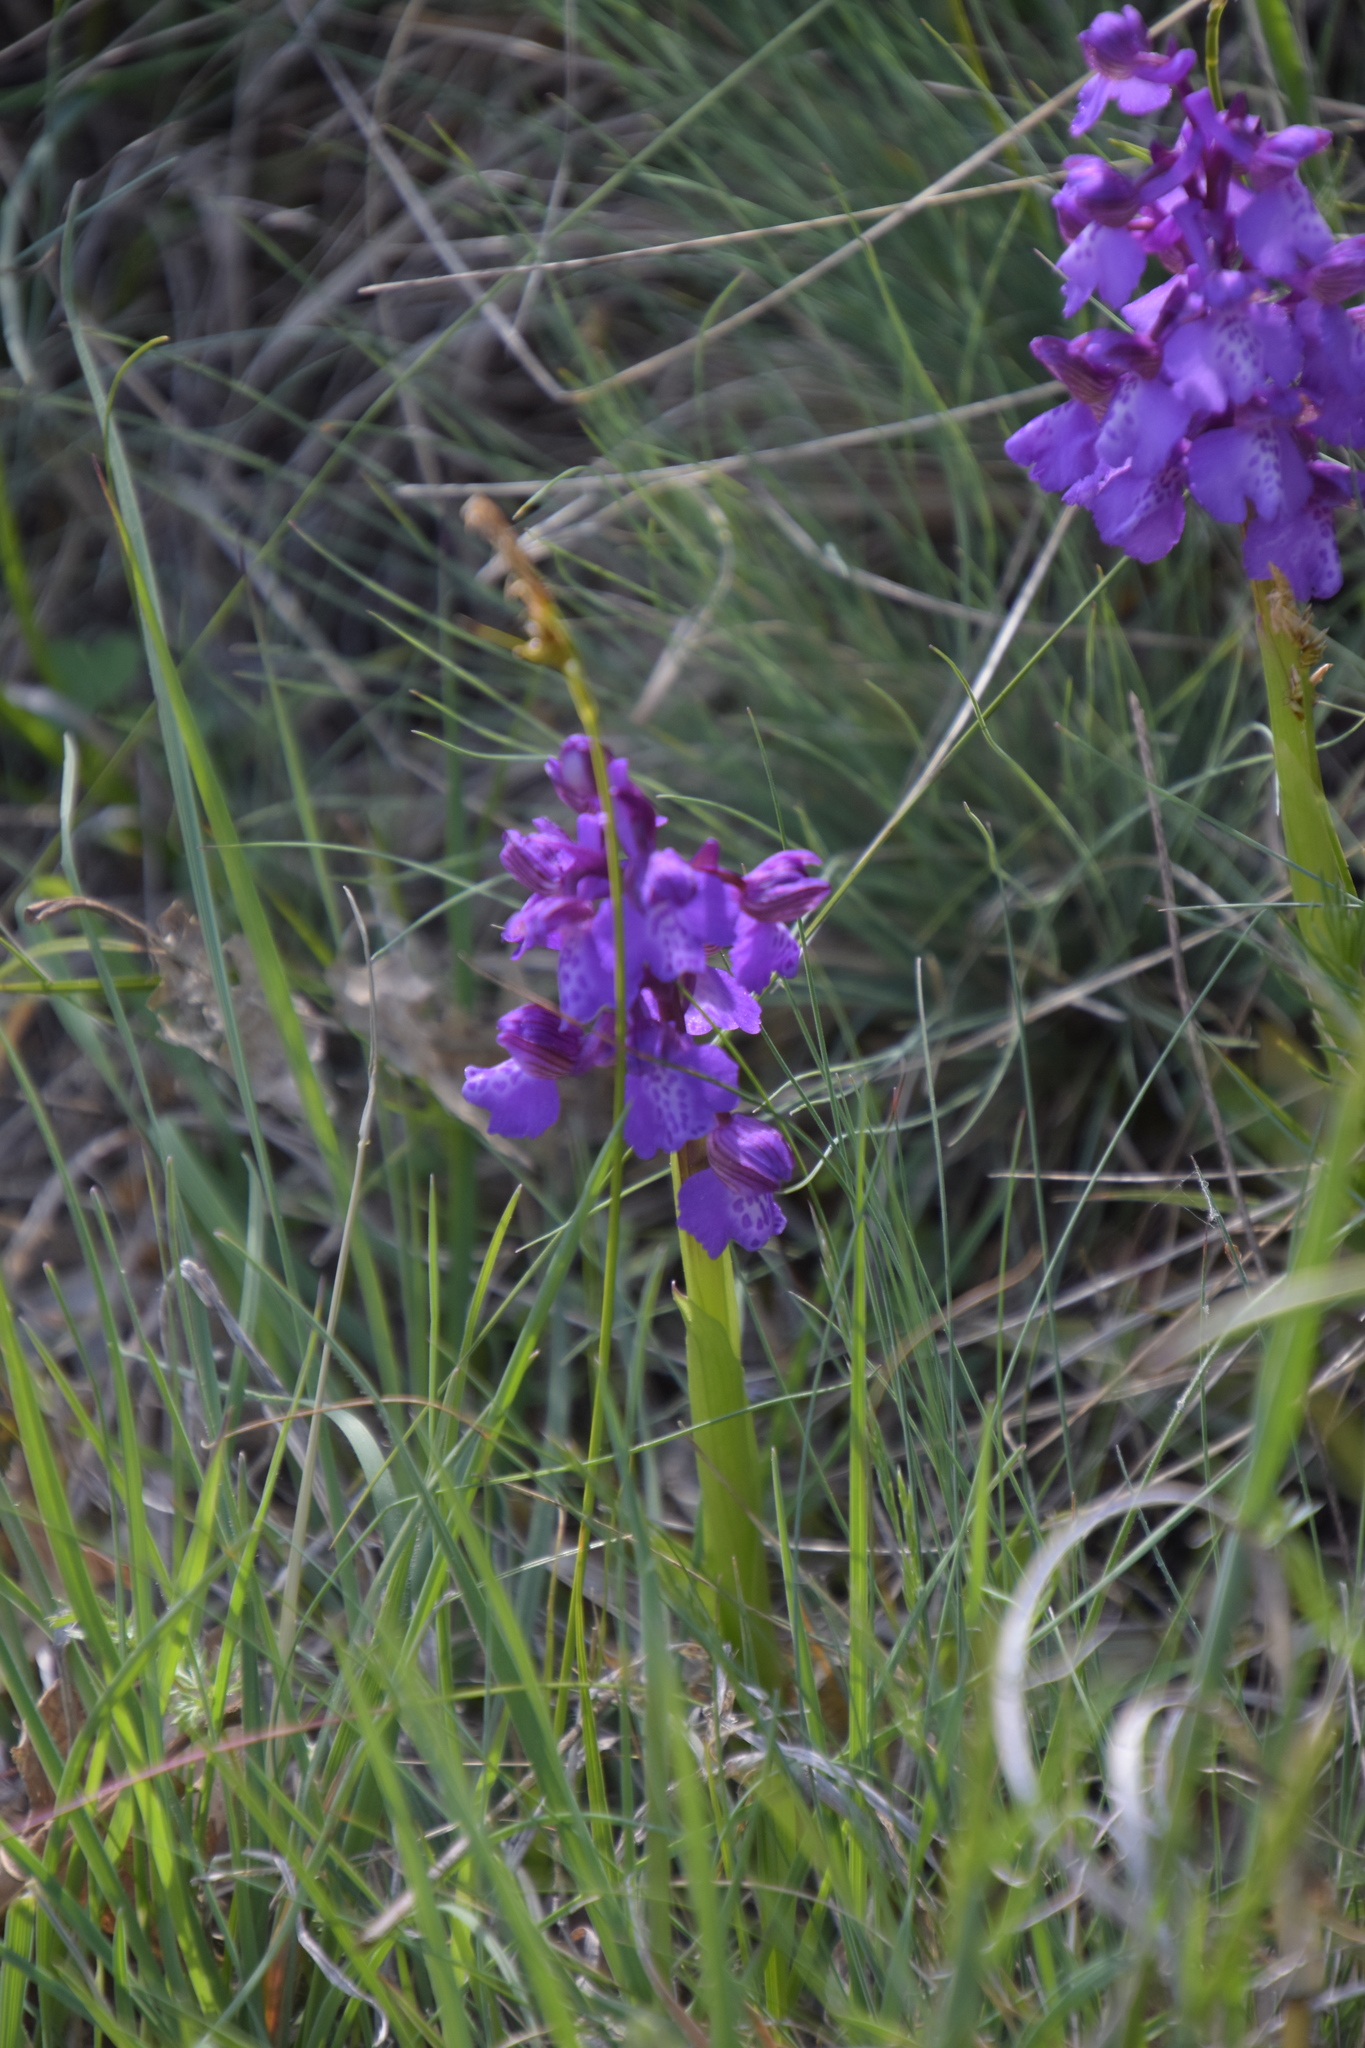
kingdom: Plantae
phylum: Tracheophyta
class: Liliopsida
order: Asparagales
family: Orchidaceae
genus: Anacamptis
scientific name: Anacamptis morio
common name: Green-winged orchid
